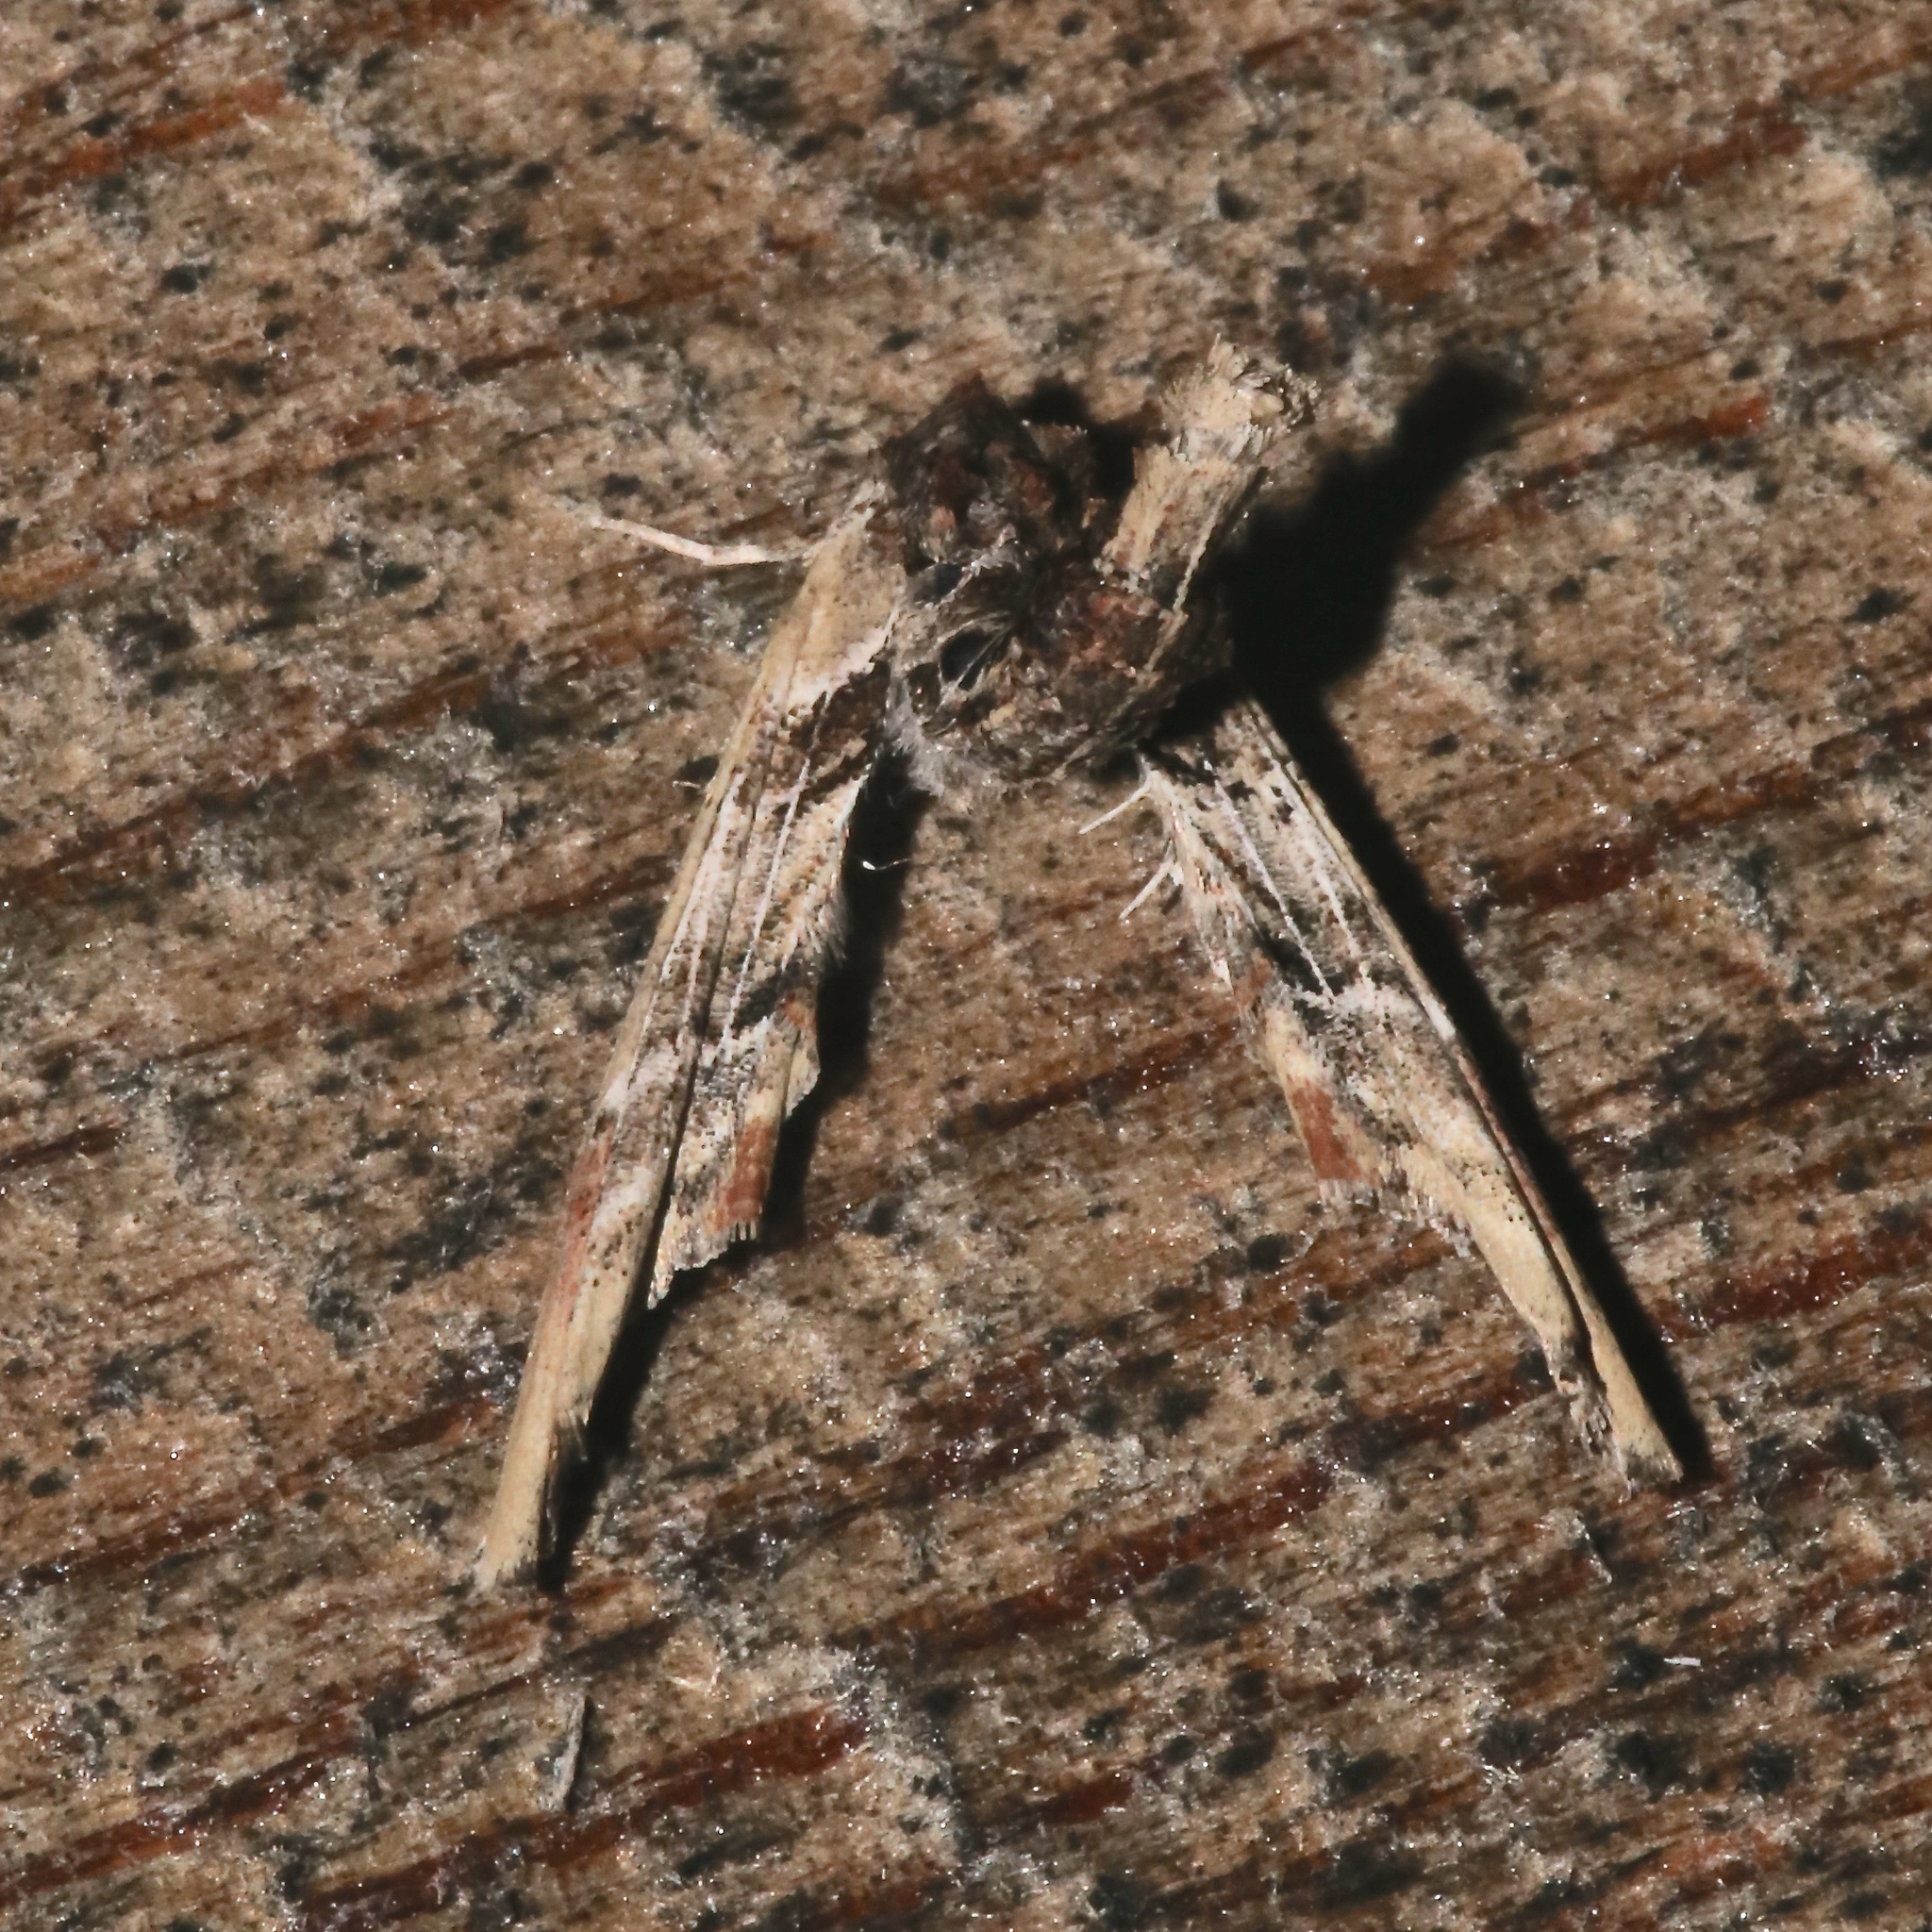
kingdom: Animalia
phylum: Arthropoda
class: Insecta
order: Lepidoptera
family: Euteliidae
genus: Marathyssa
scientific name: Marathyssa basalis
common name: Light marathyssa moth
